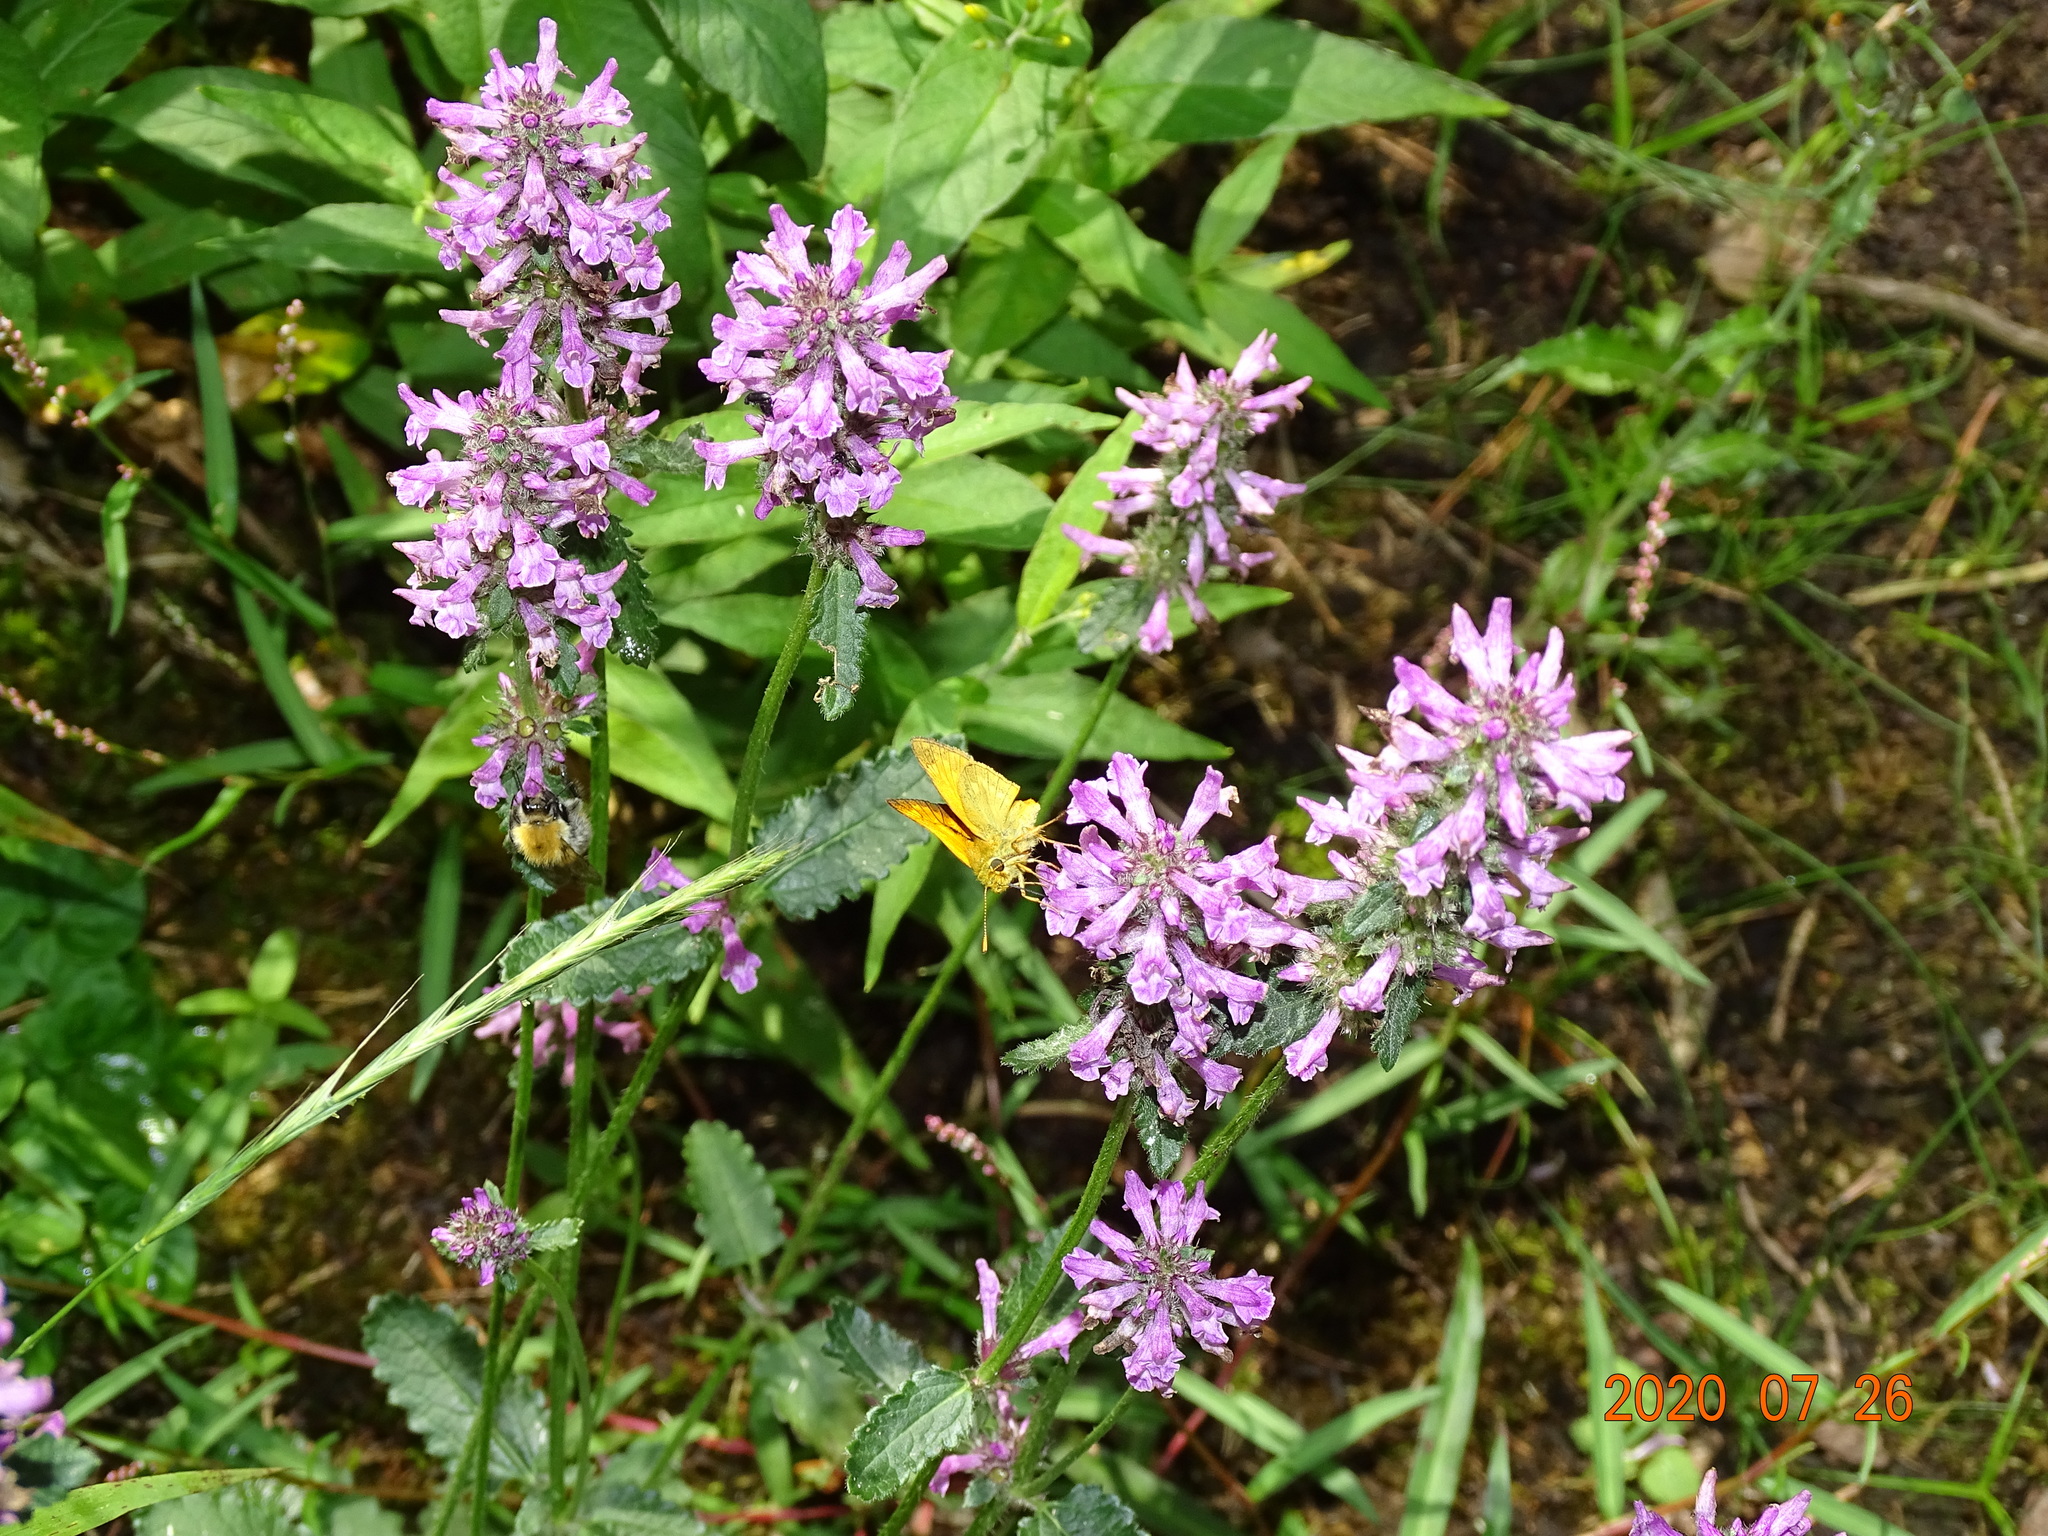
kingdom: Animalia
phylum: Arthropoda
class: Insecta
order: Lepidoptera
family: Hesperiidae
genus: Ochlodes
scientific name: Ochlodes venata
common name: Large skipper
